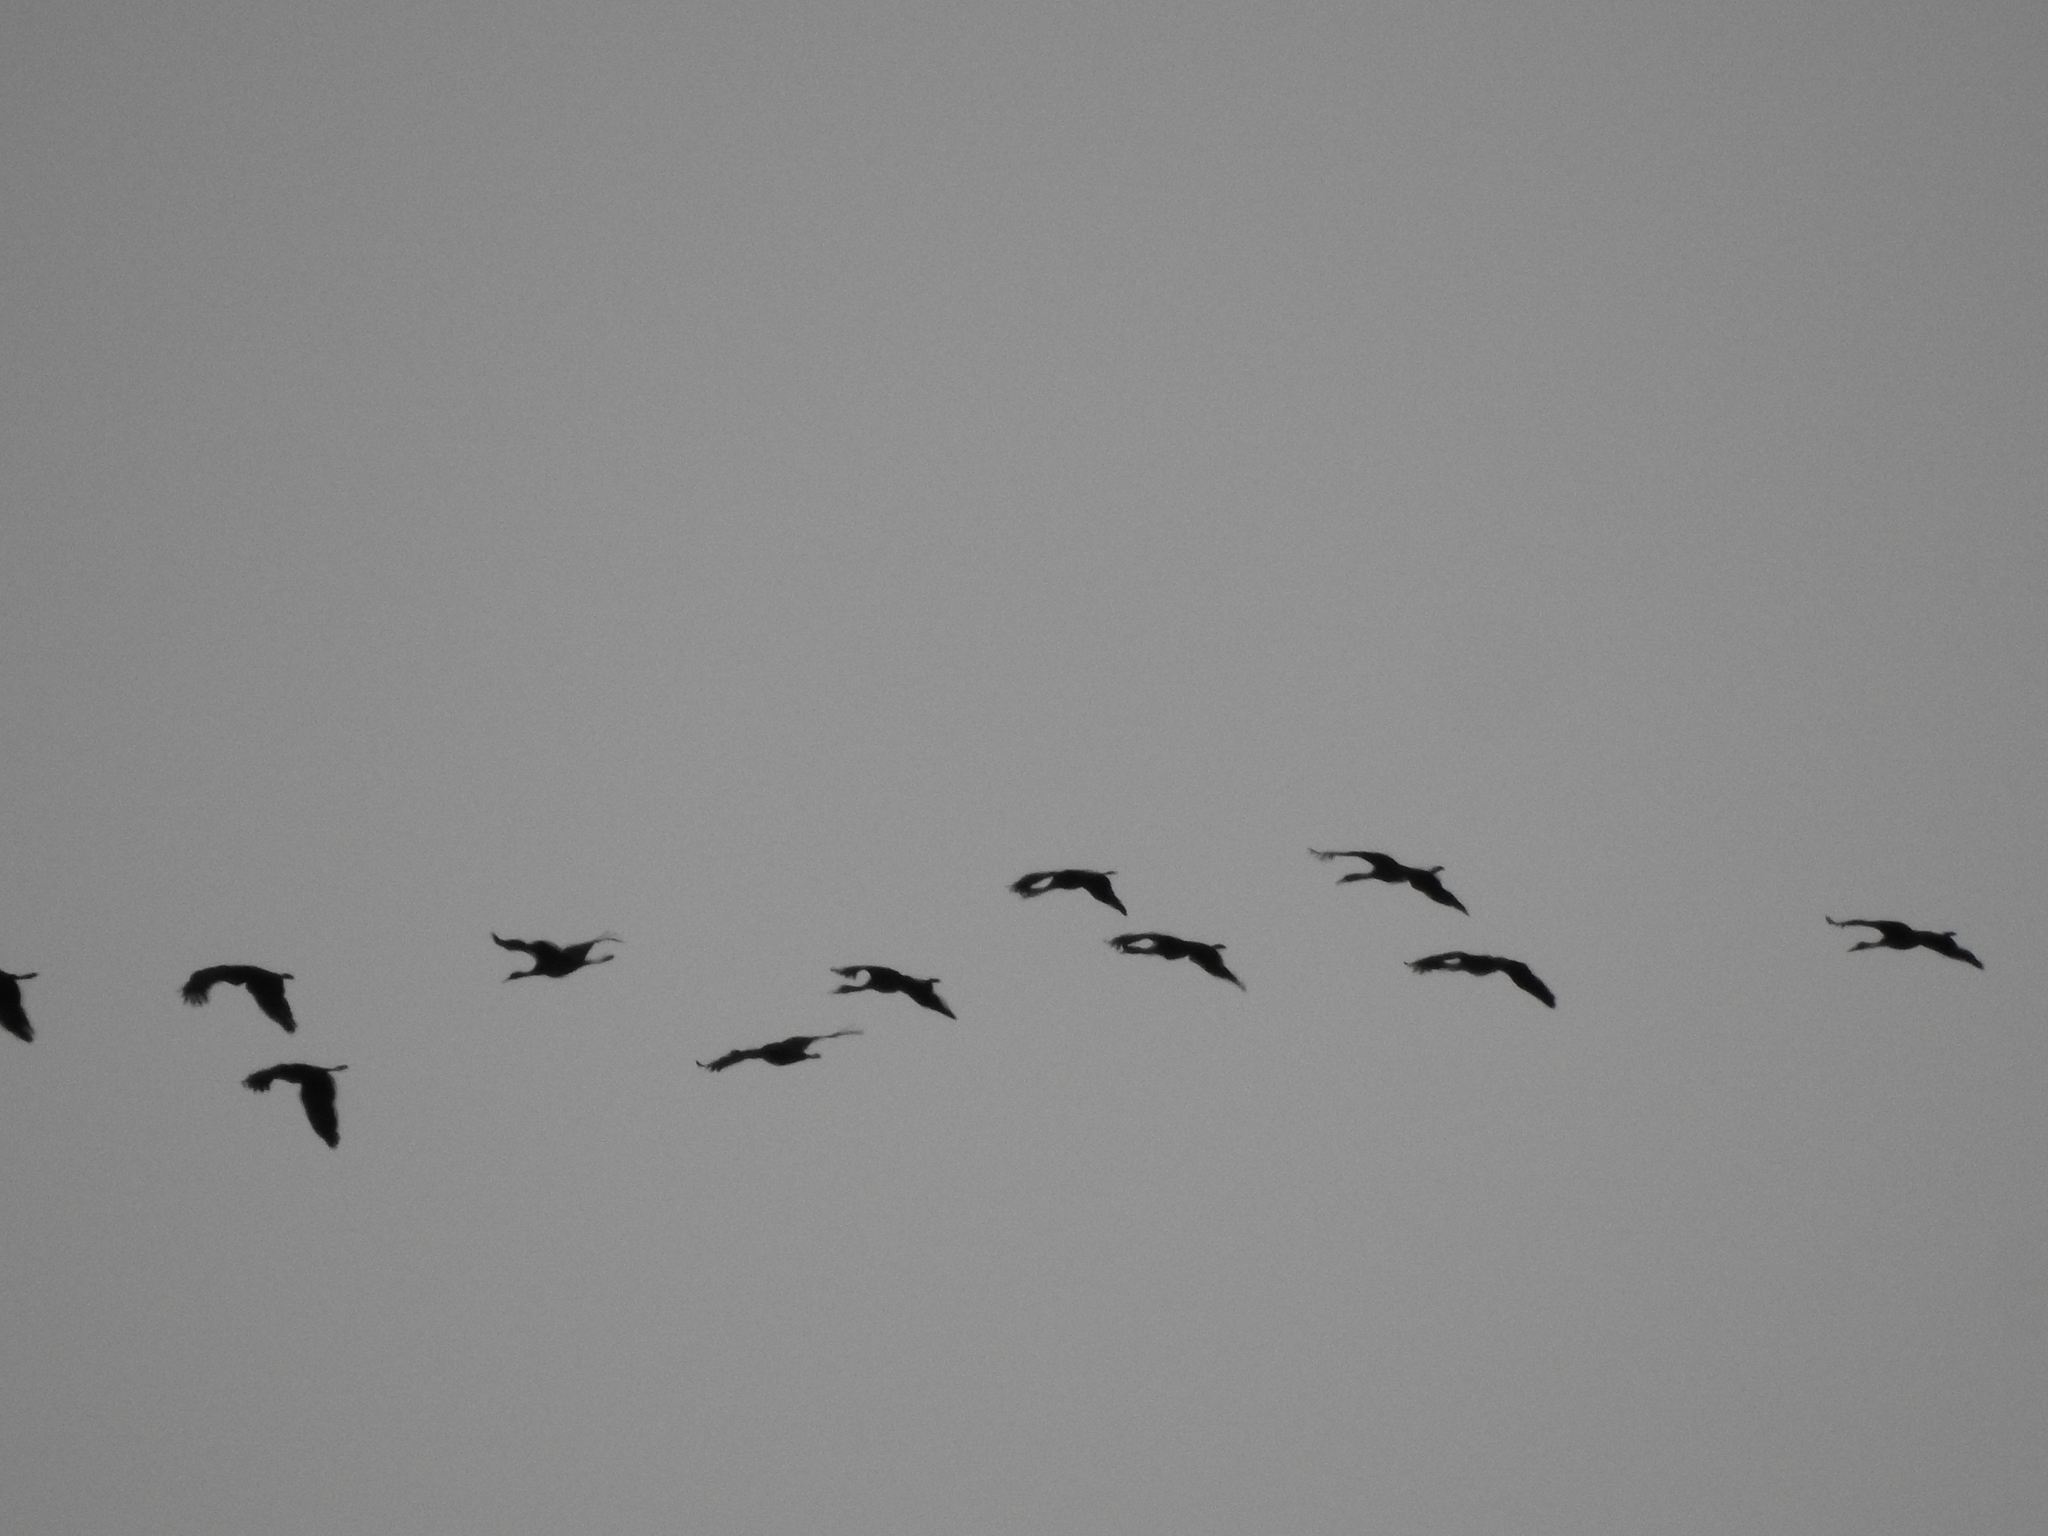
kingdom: Animalia
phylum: Chordata
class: Aves
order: Gruiformes
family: Gruidae
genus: Grus
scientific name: Grus canadensis
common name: Sandhill crane
